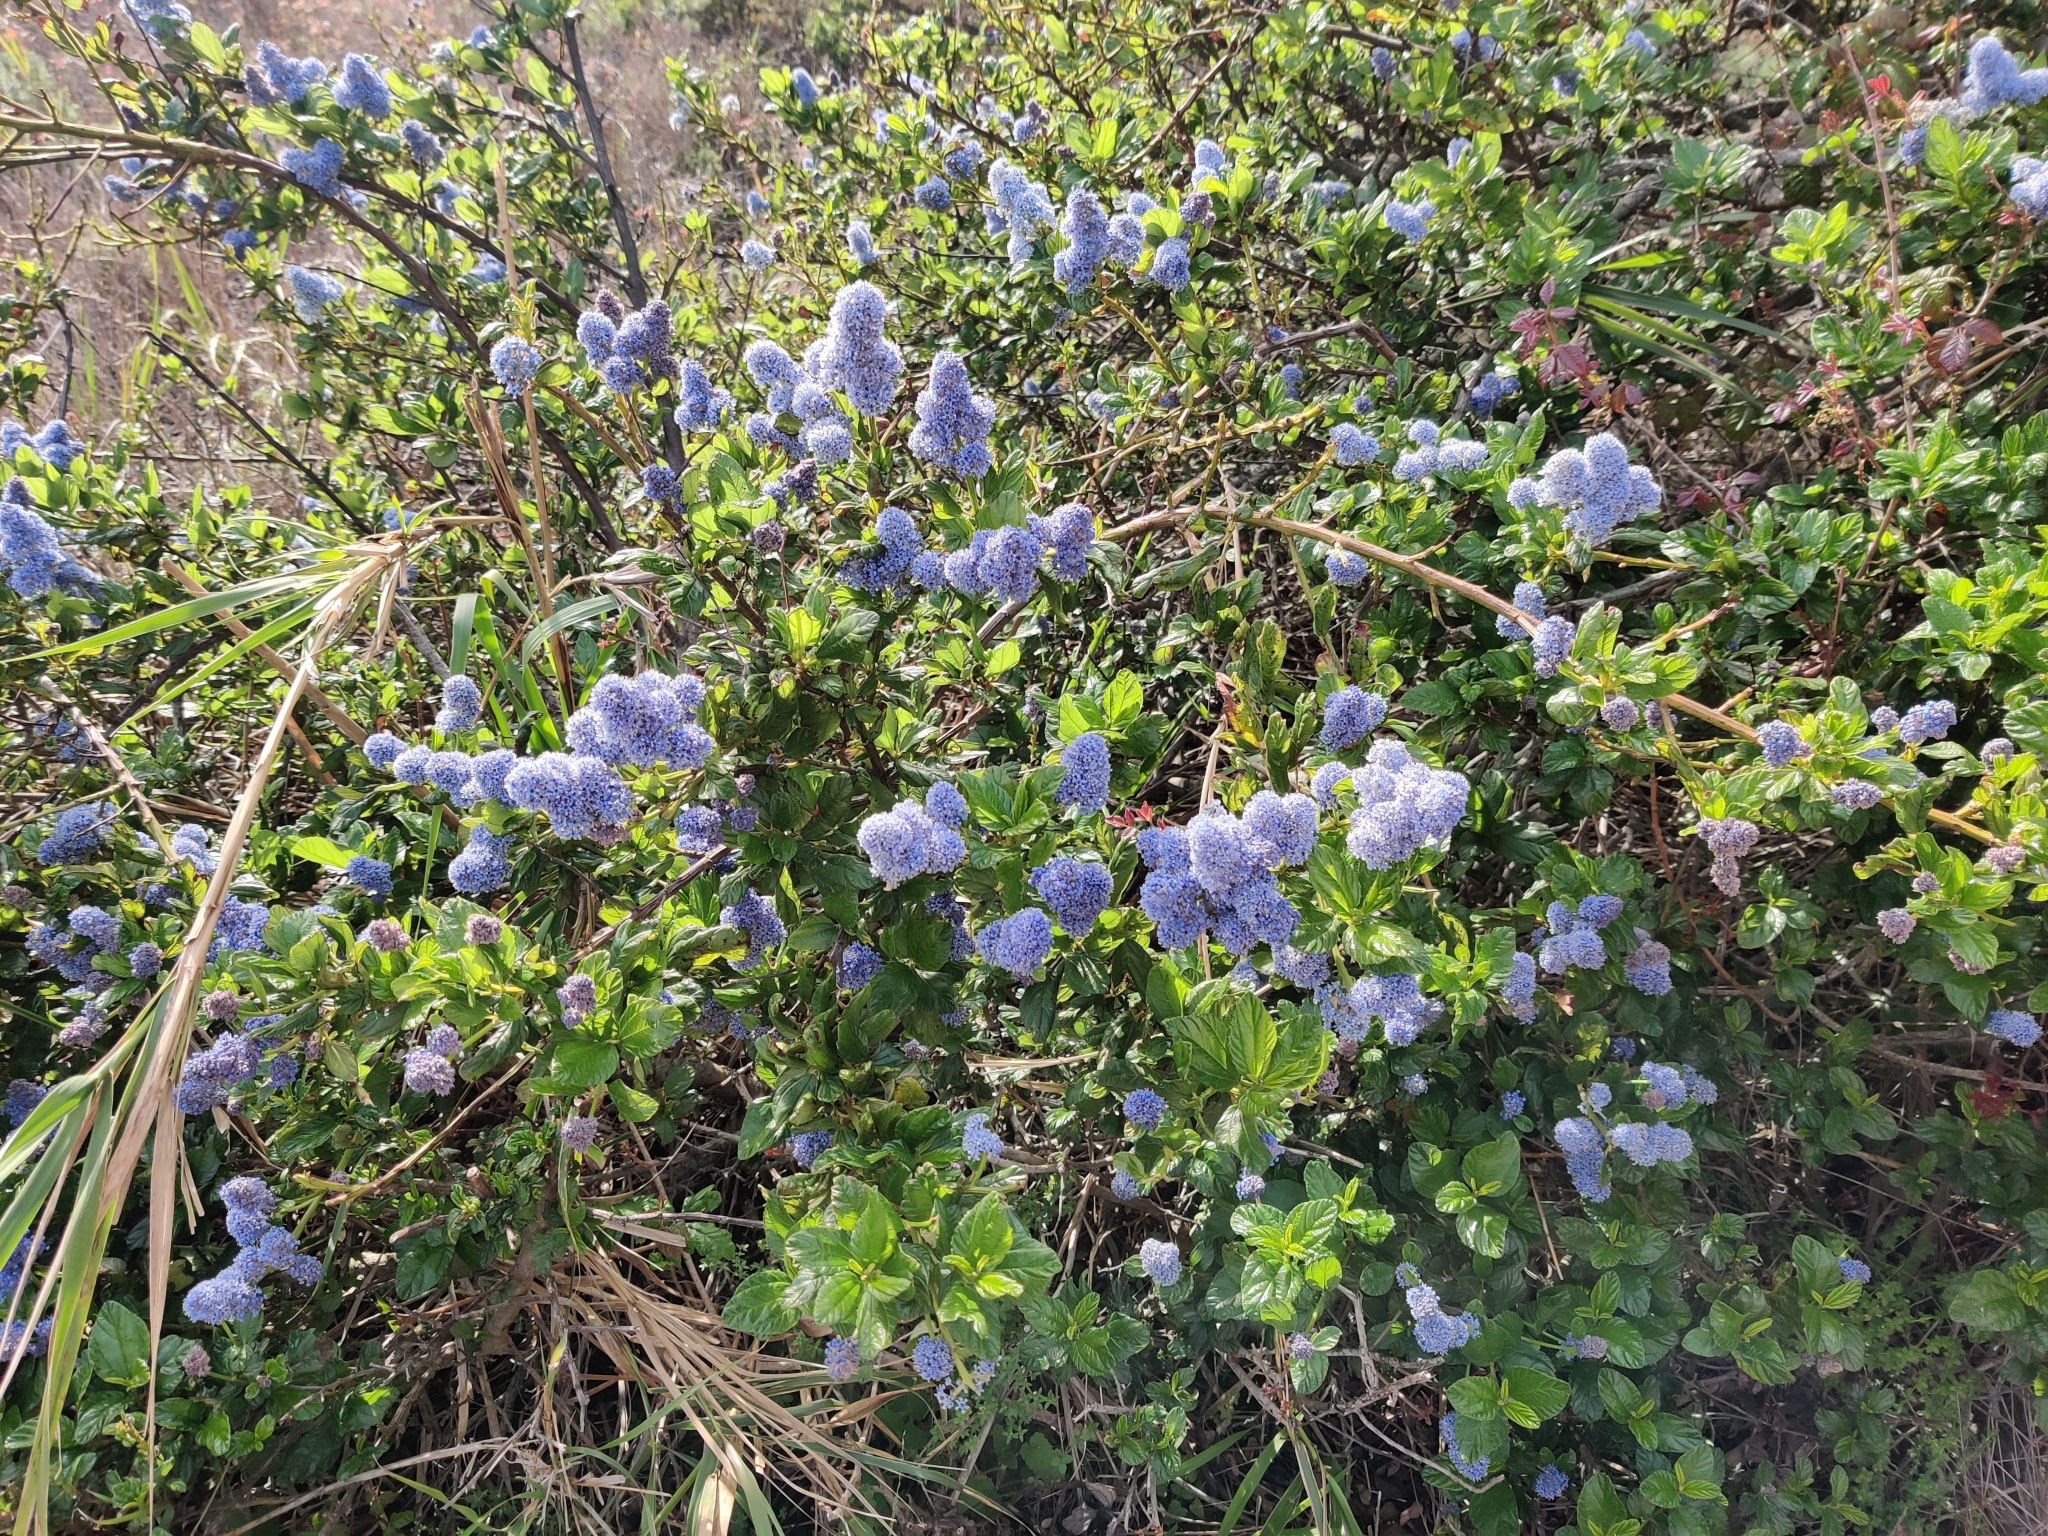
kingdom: Plantae
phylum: Tracheophyta
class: Magnoliopsida
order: Rosales
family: Rhamnaceae
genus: Ceanothus
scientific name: Ceanothus thyrsiflorus
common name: California-lilac
